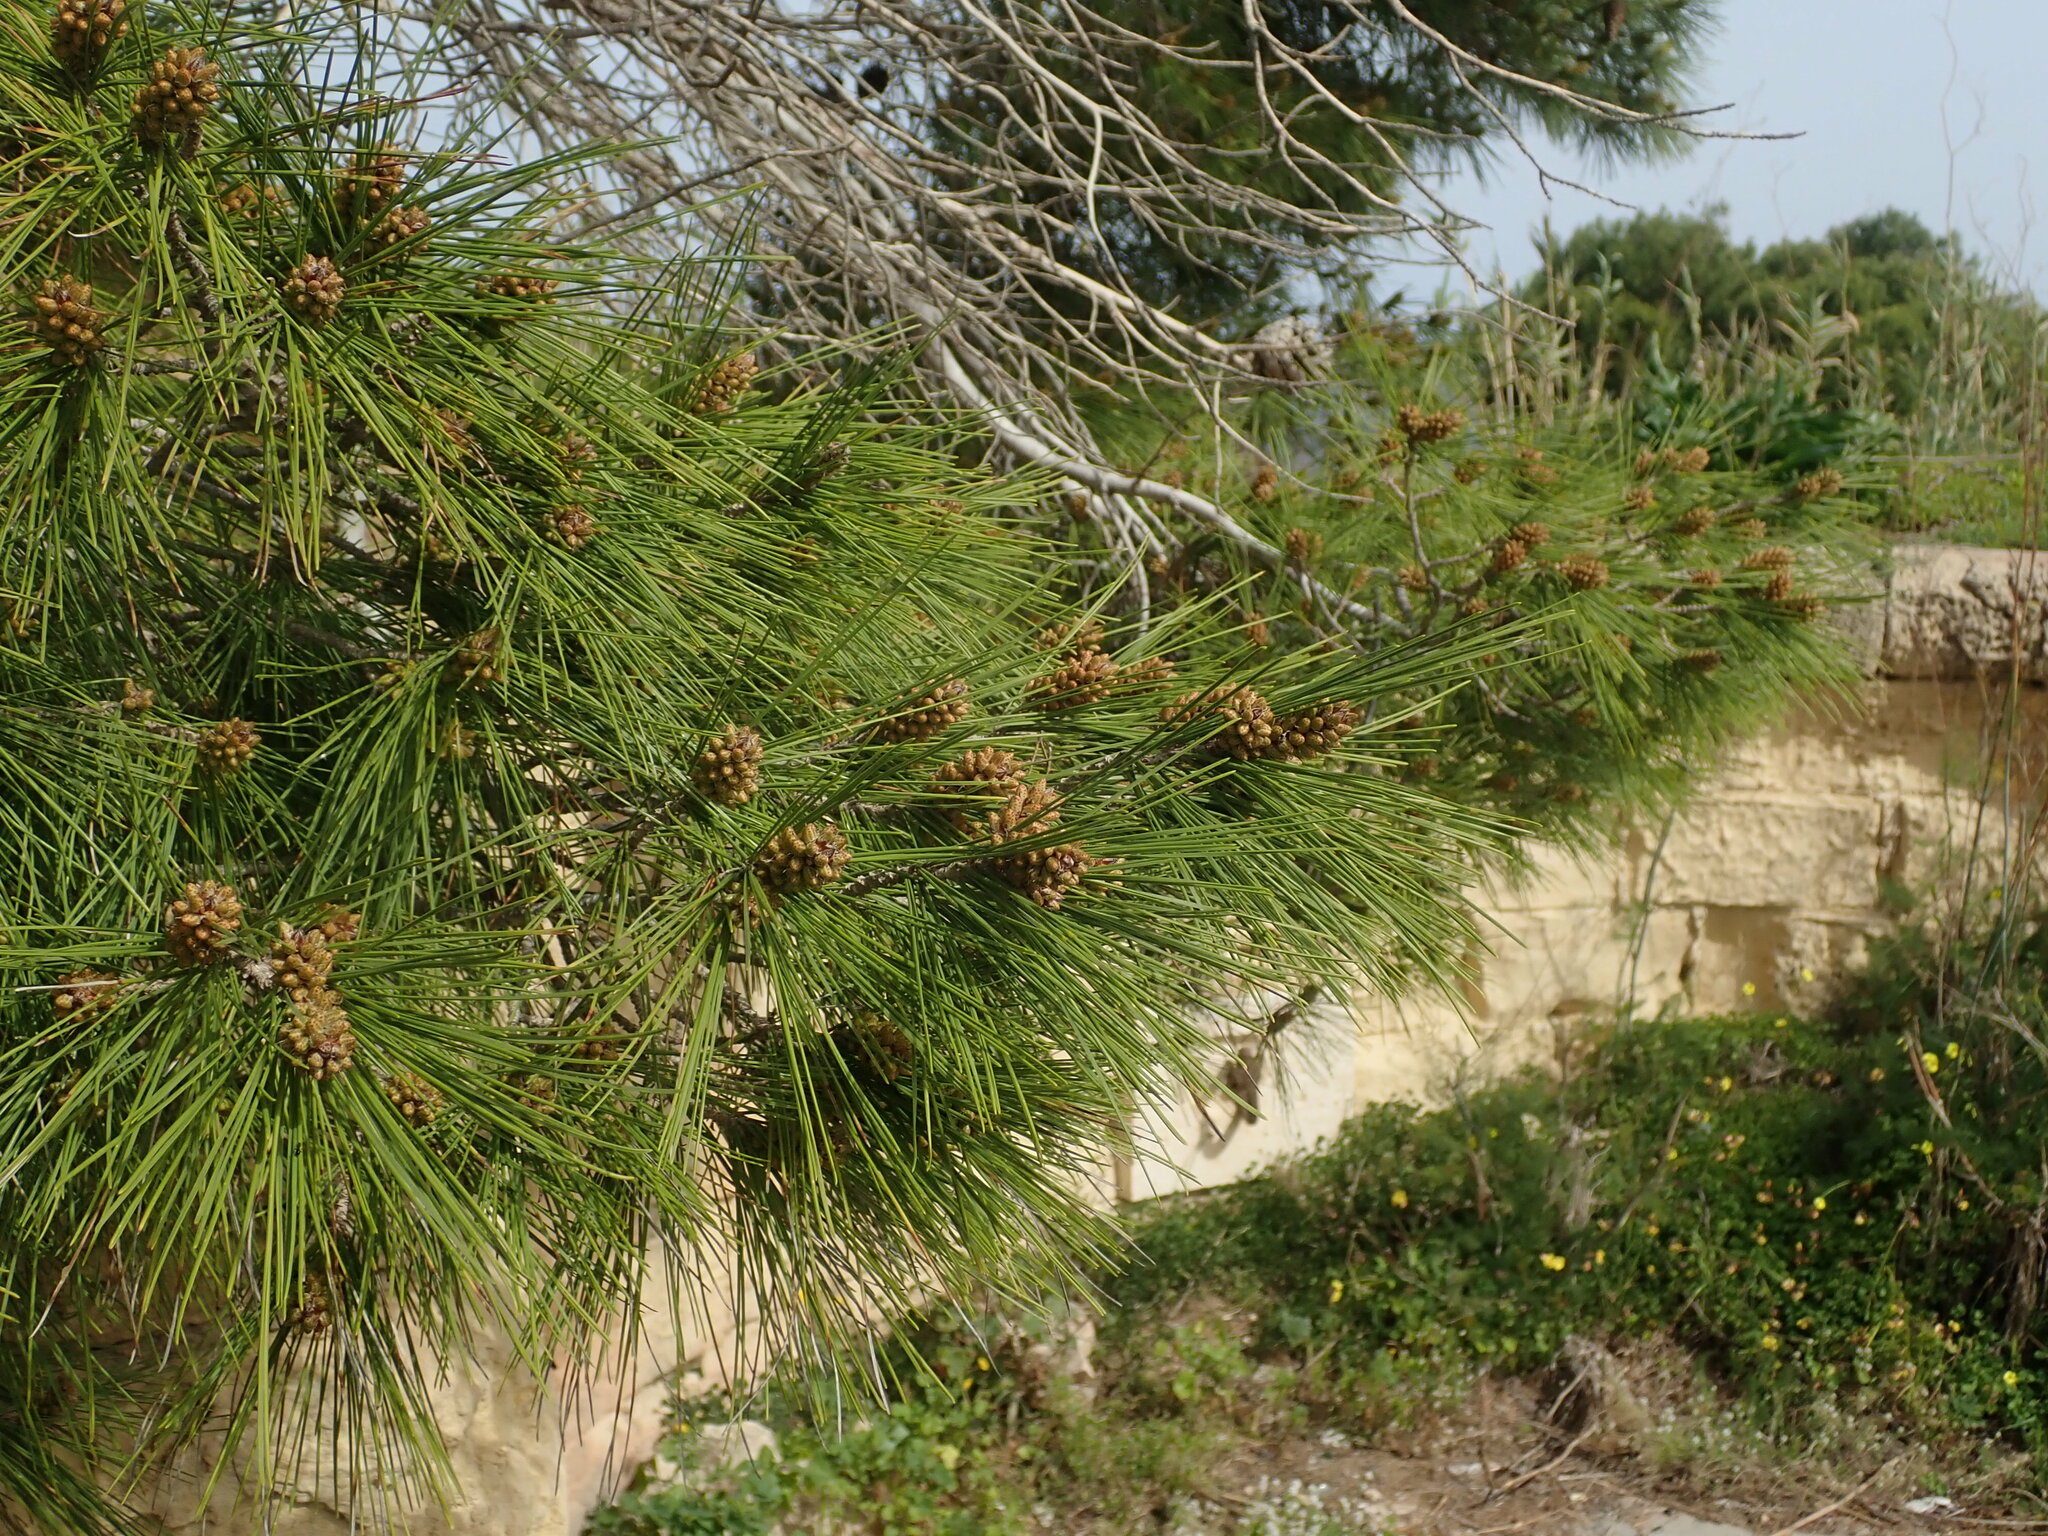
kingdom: Plantae
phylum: Tracheophyta
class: Pinopsida
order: Pinales
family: Pinaceae
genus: Pinus
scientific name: Pinus halepensis
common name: Aleppo pine
